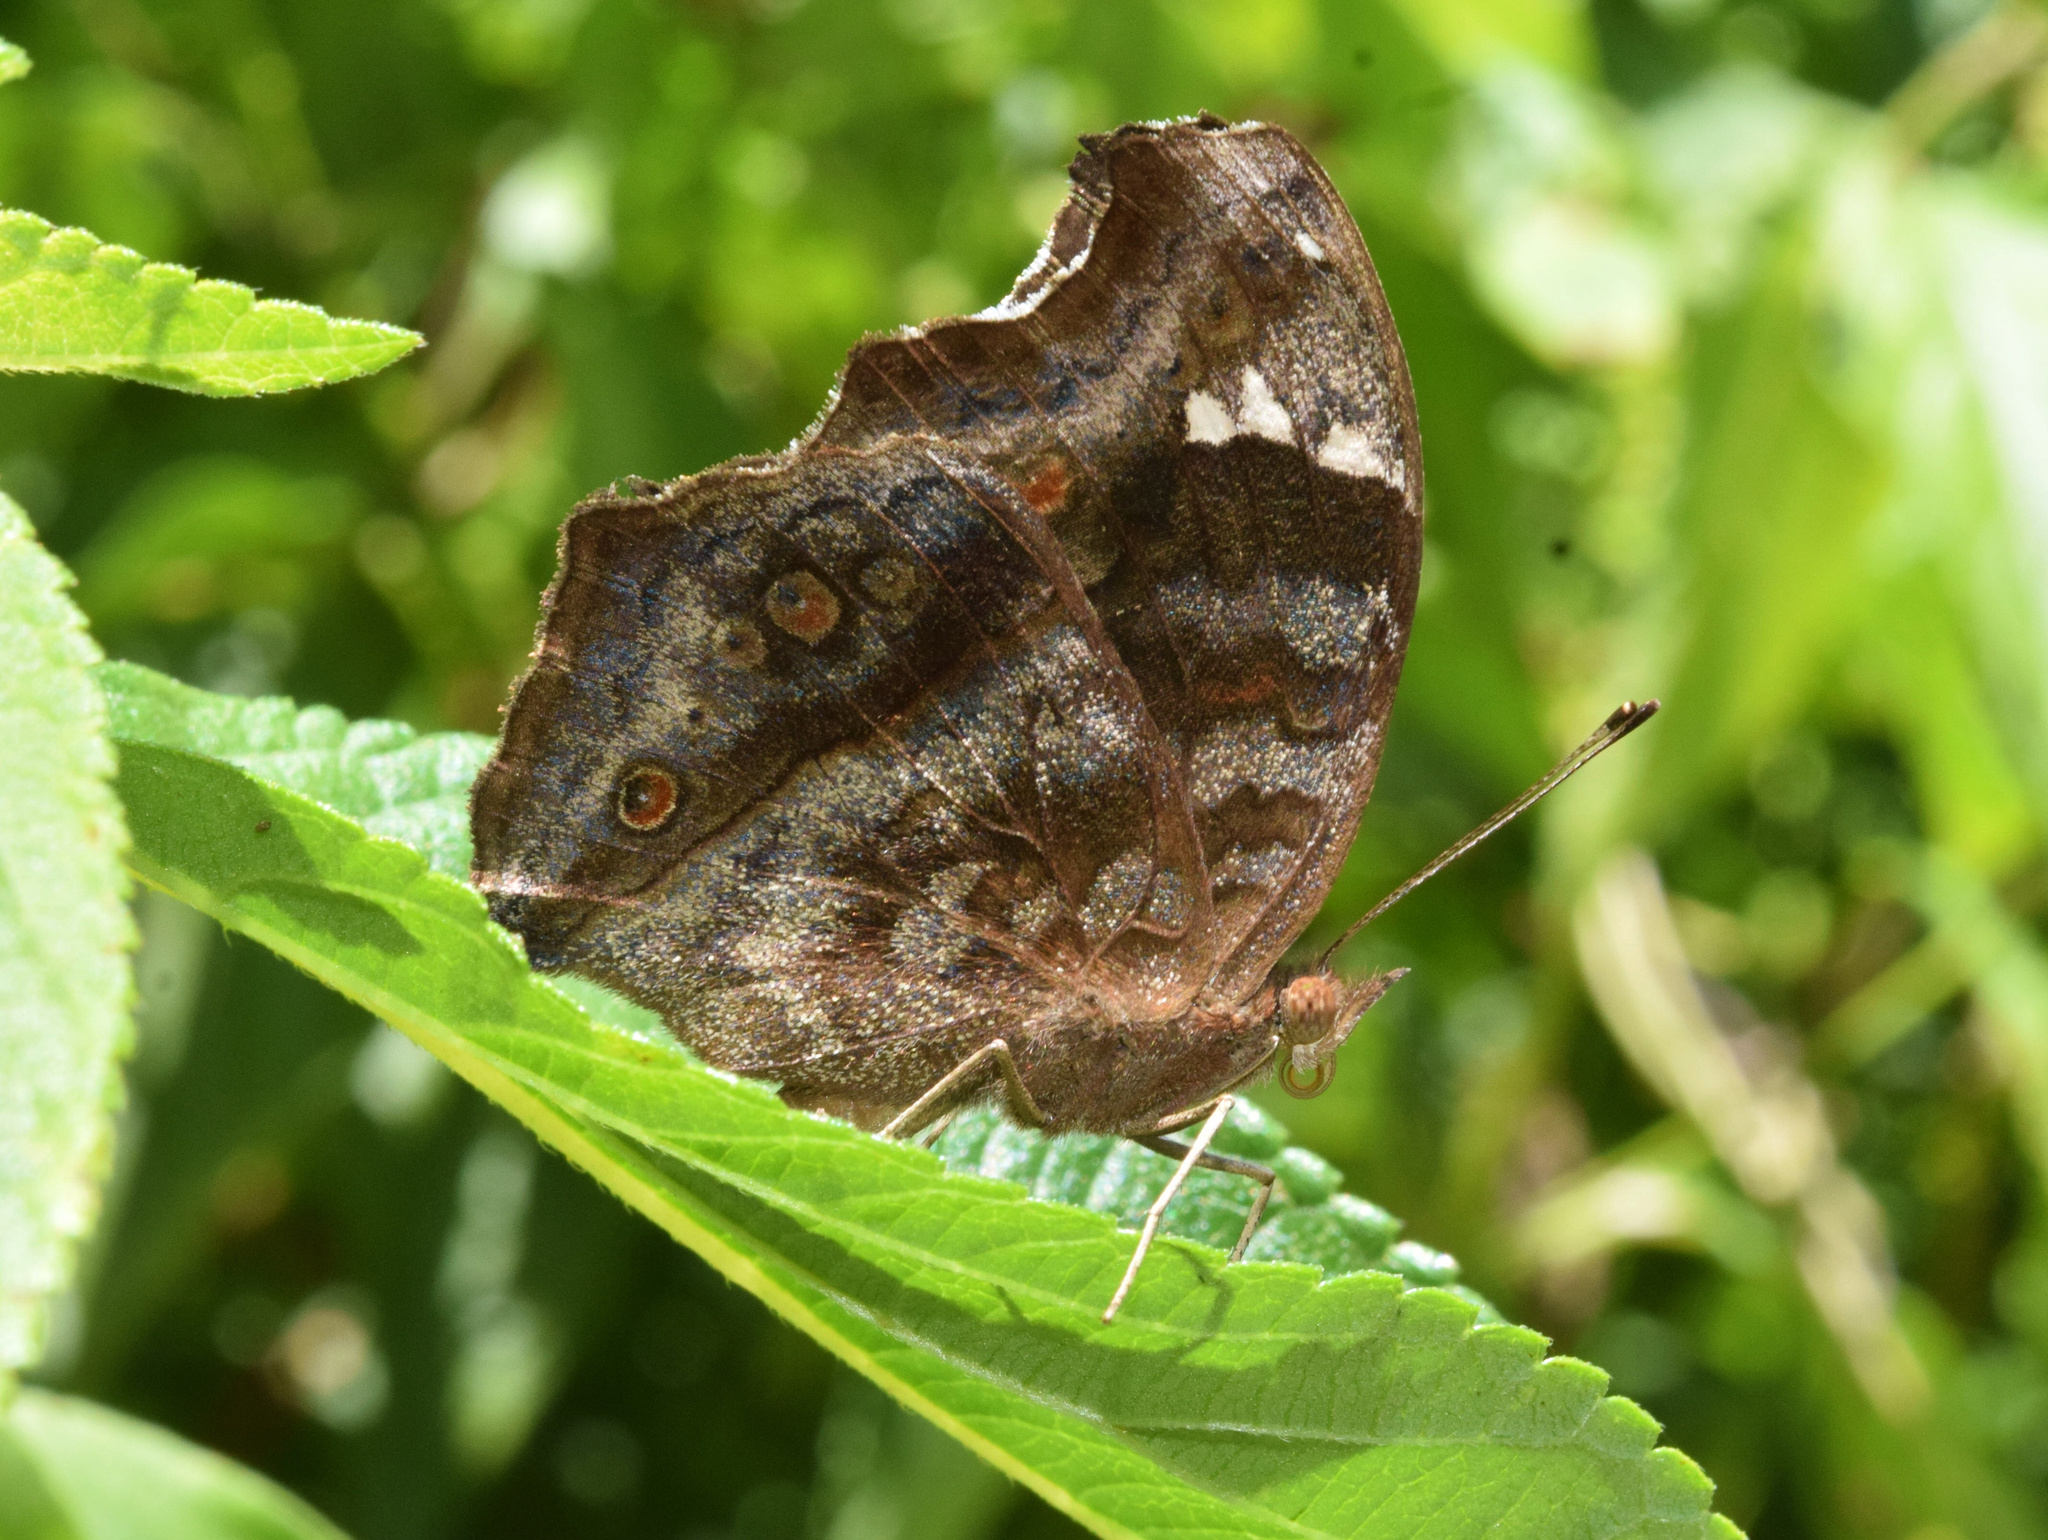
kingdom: Animalia
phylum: Arthropoda
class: Insecta
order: Lepidoptera
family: Nymphalidae
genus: Junonia
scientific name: Junonia natalica
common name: Brown pansy
